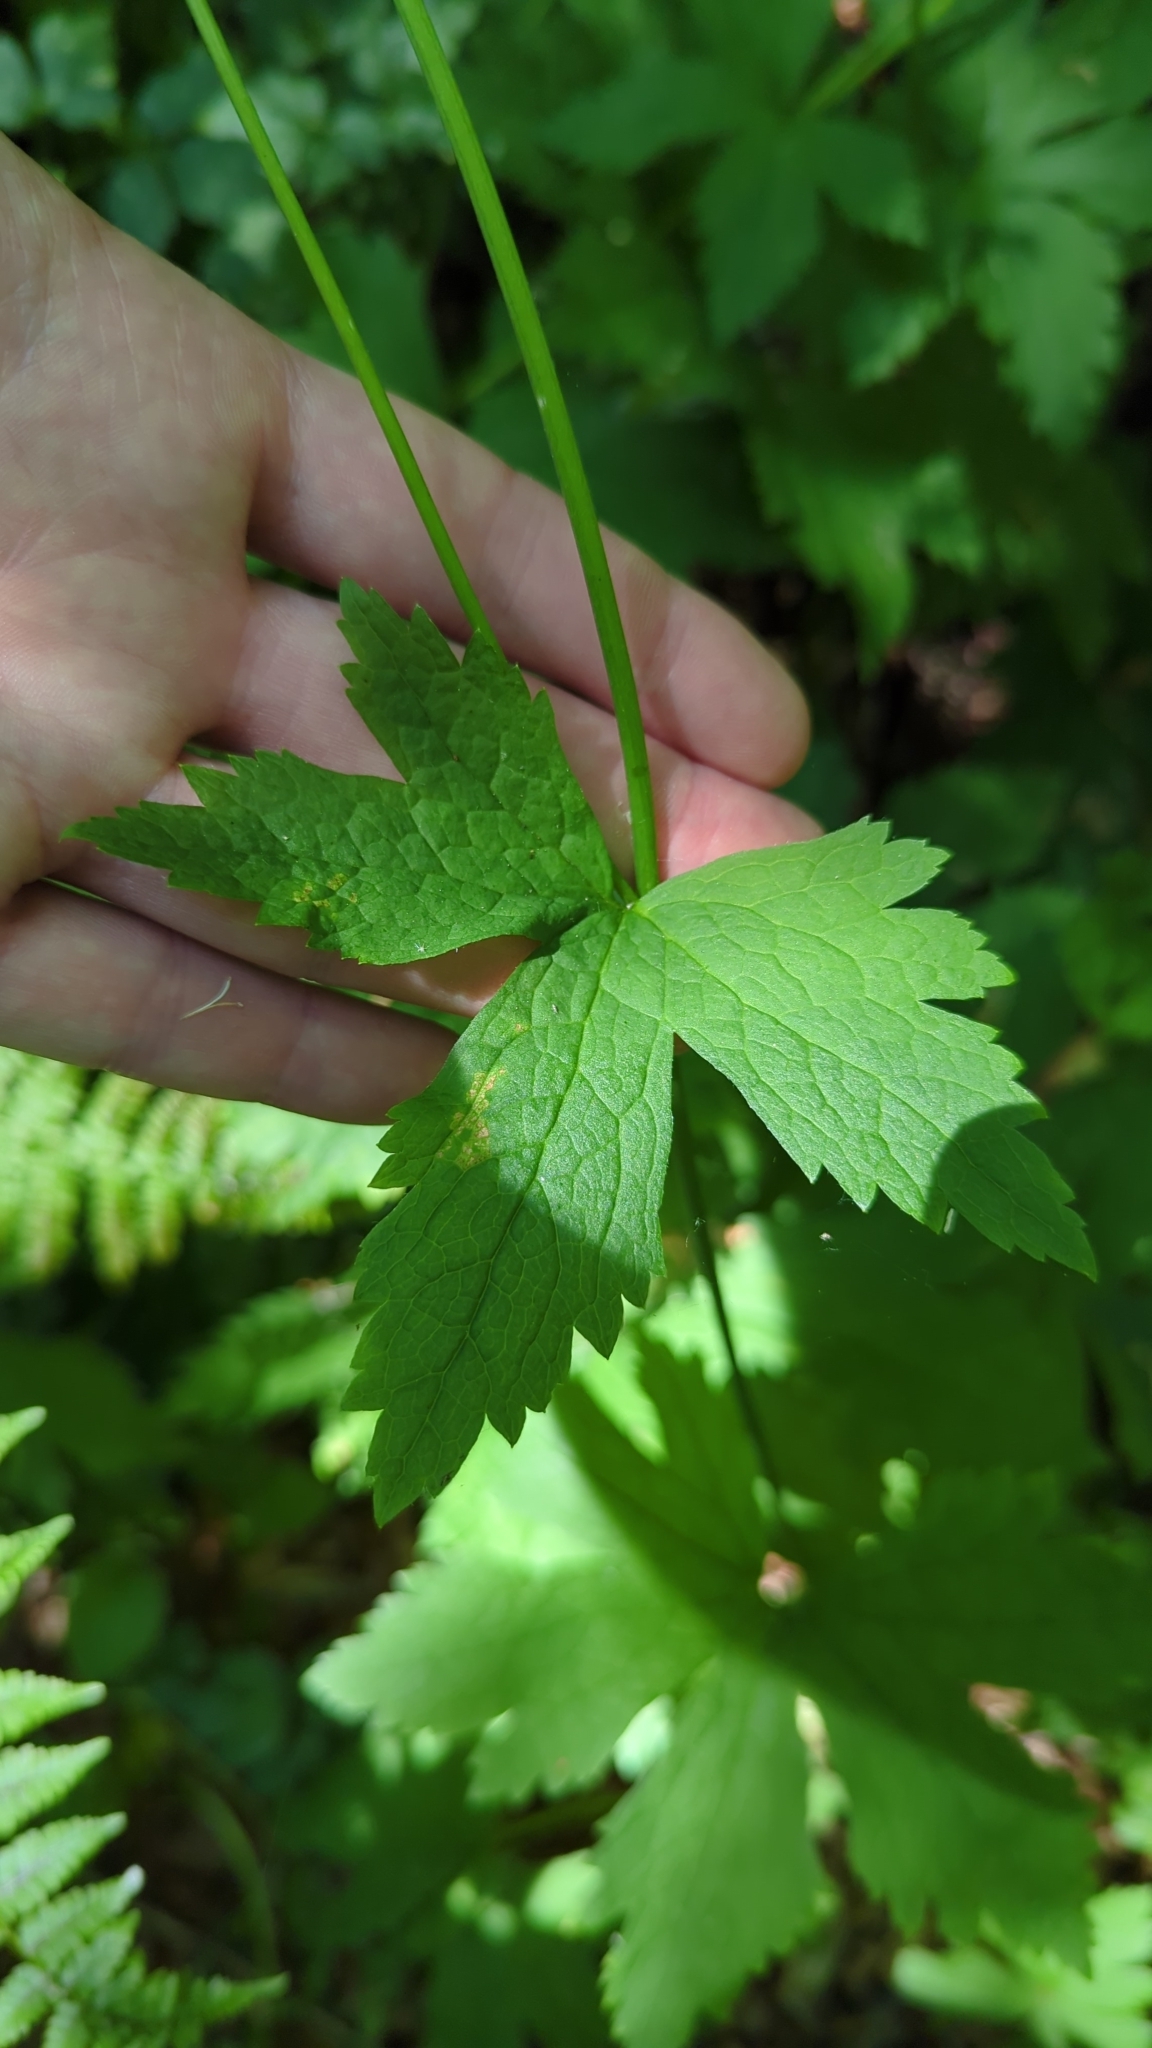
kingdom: Plantae
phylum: Tracheophyta
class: Magnoliopsida
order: Ranunculales
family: Ranunculaceae
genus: Trautvetteria
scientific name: Trautvetteria carolinensis
